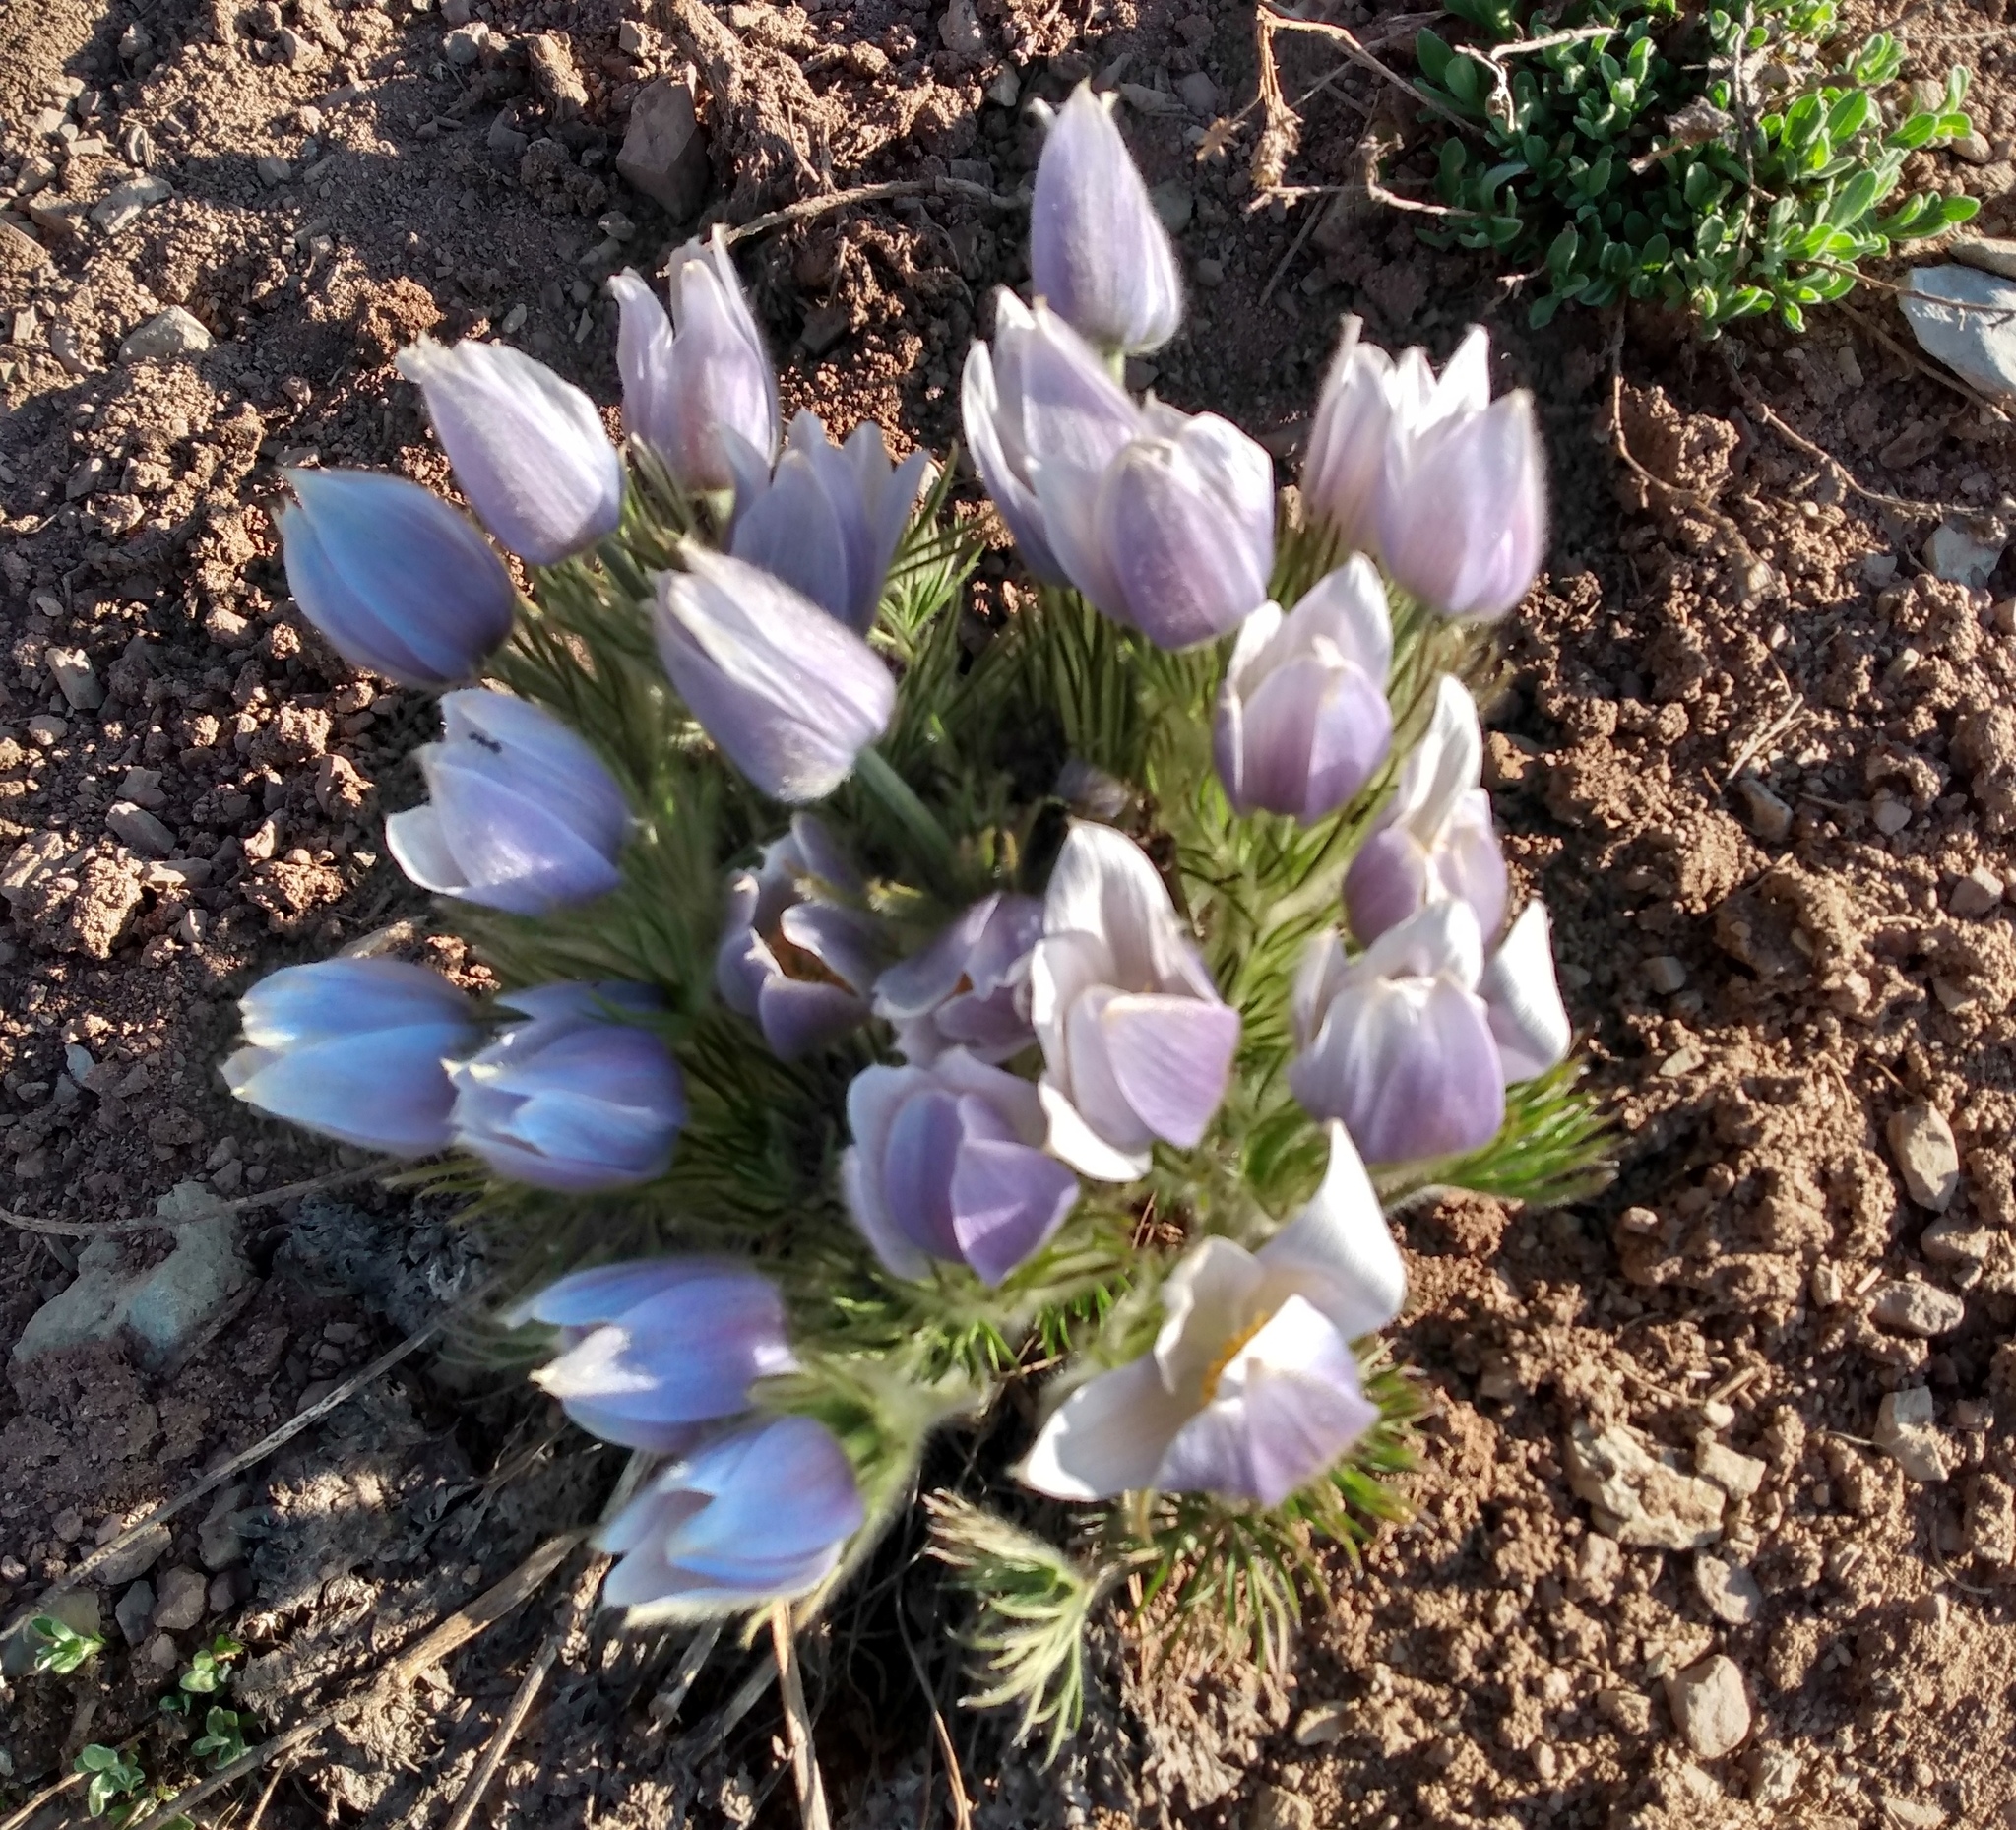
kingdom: Plantae
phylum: Tracheophyta
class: Magnoliopsida
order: Ranunculales
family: Ranunculaceae
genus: Pulsatilla
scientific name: Pulsatilla nuttalliana
